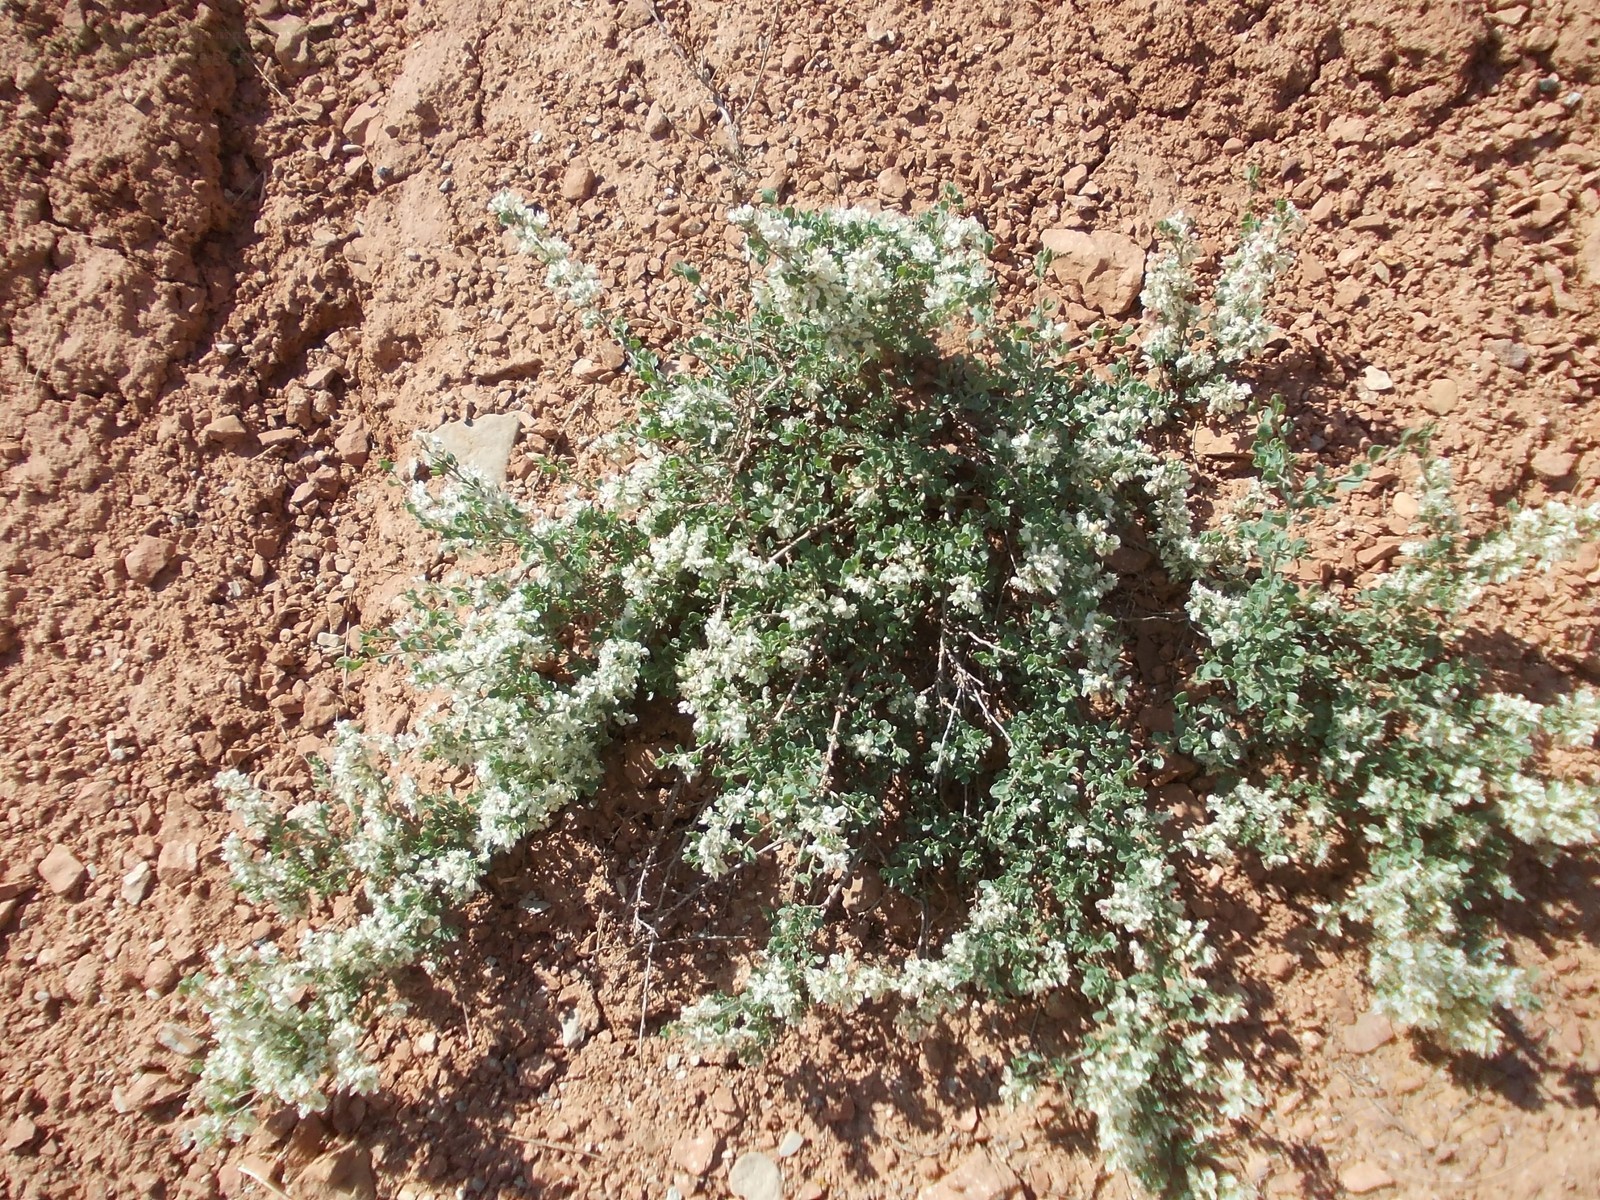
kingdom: Plantae
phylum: Tracheophyta
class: Magnoliopsida
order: Caryophyllales
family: Polygonaceae
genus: Atraphaxis
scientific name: Atraphaxis replicata
